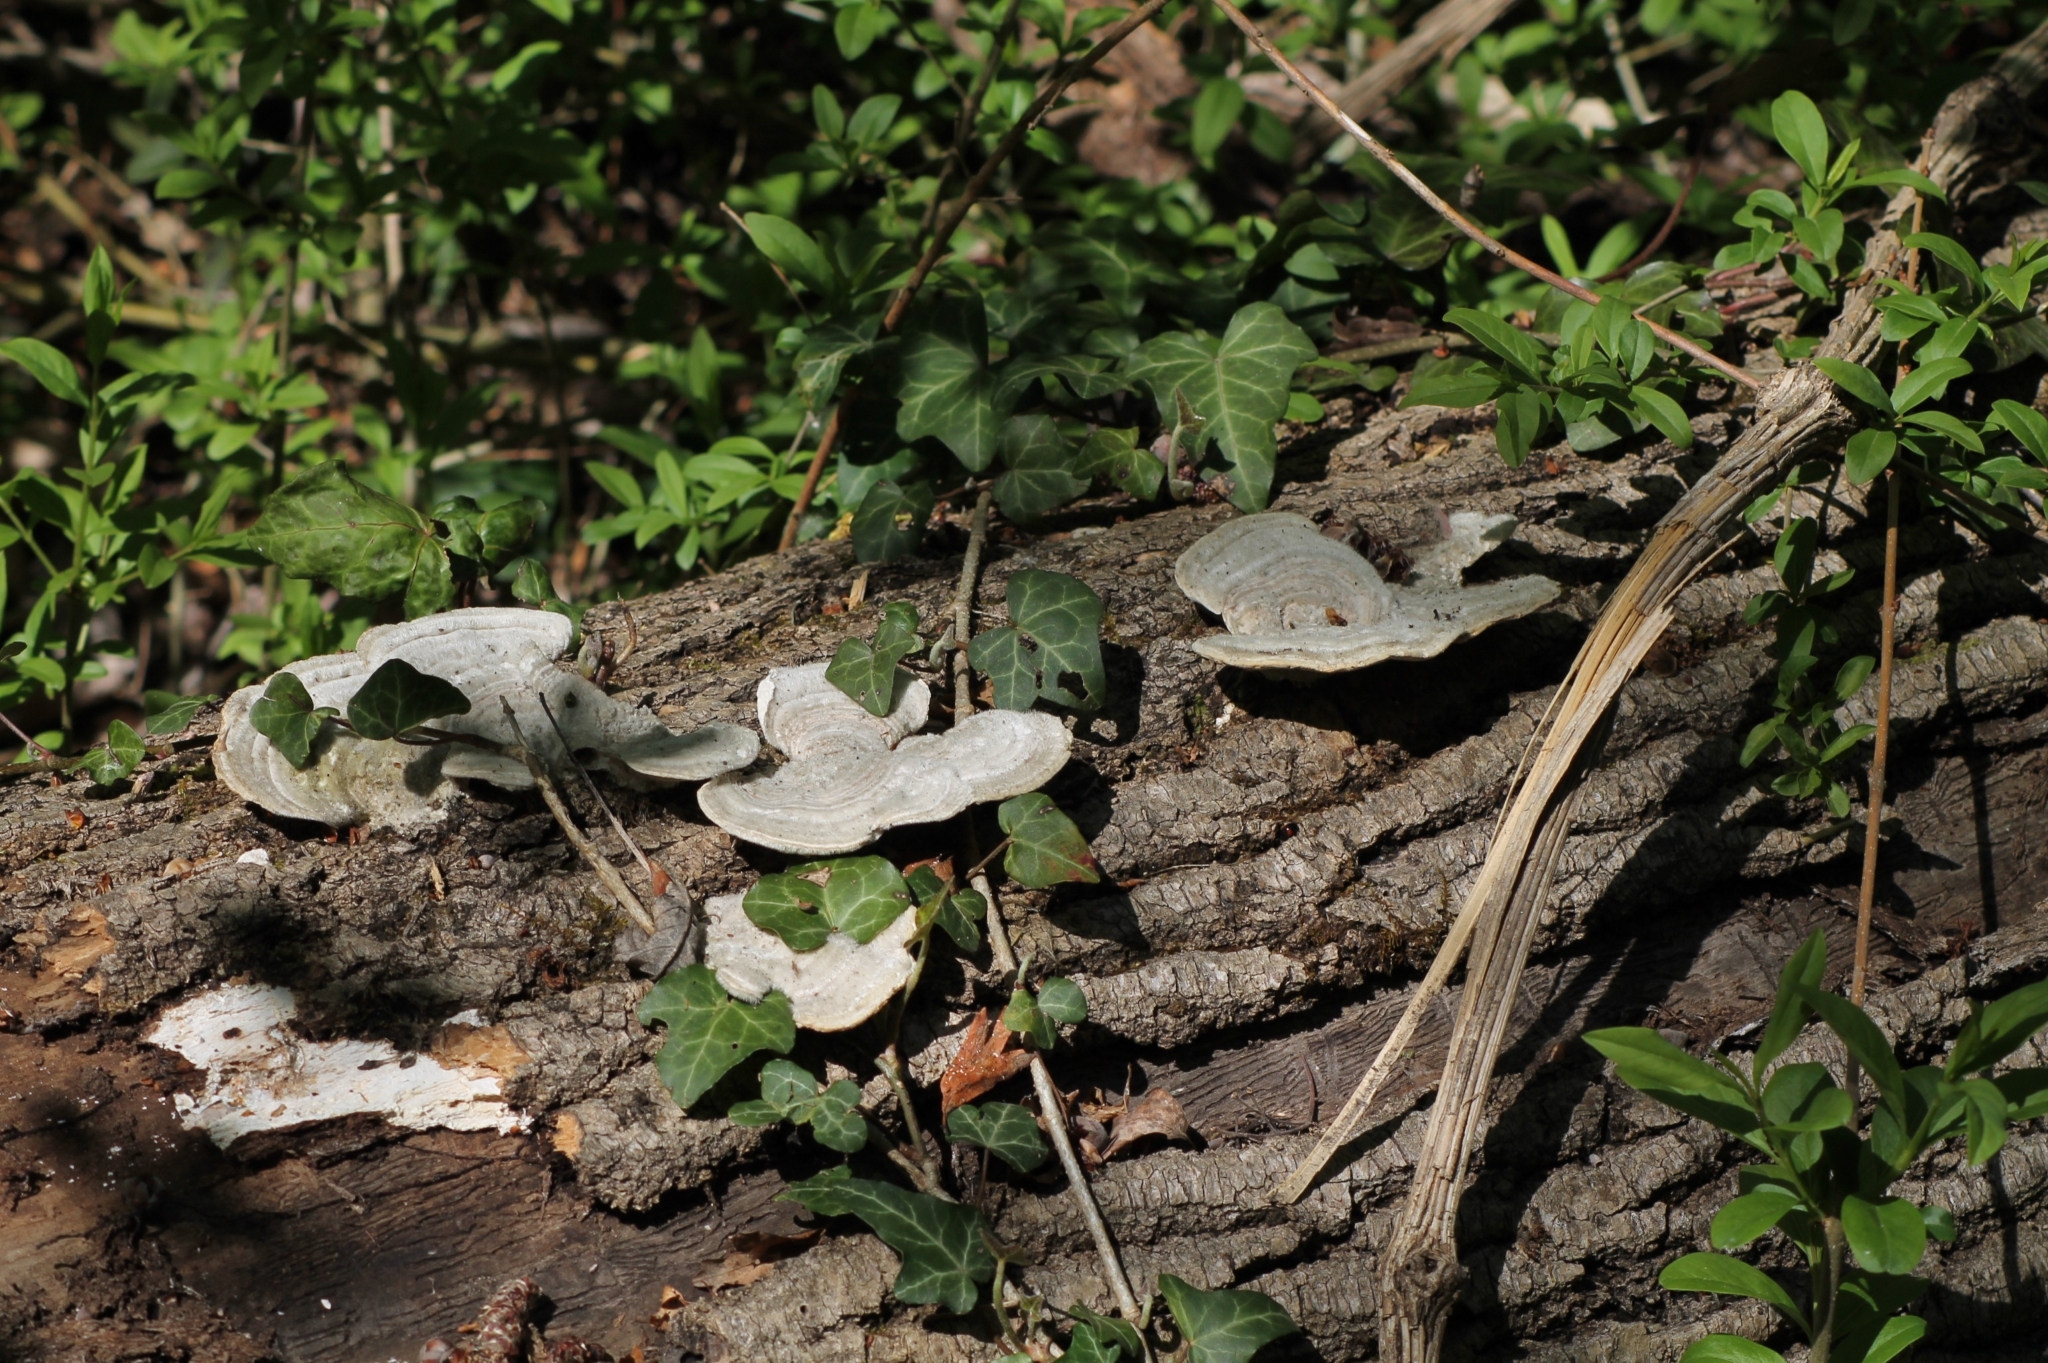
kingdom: Fungi
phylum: Basidiomycota
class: Agaricomycetes
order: Polyporales
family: Polyporaceae
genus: Trametes
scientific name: Trametes hirsuta
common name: Hairy bracket
